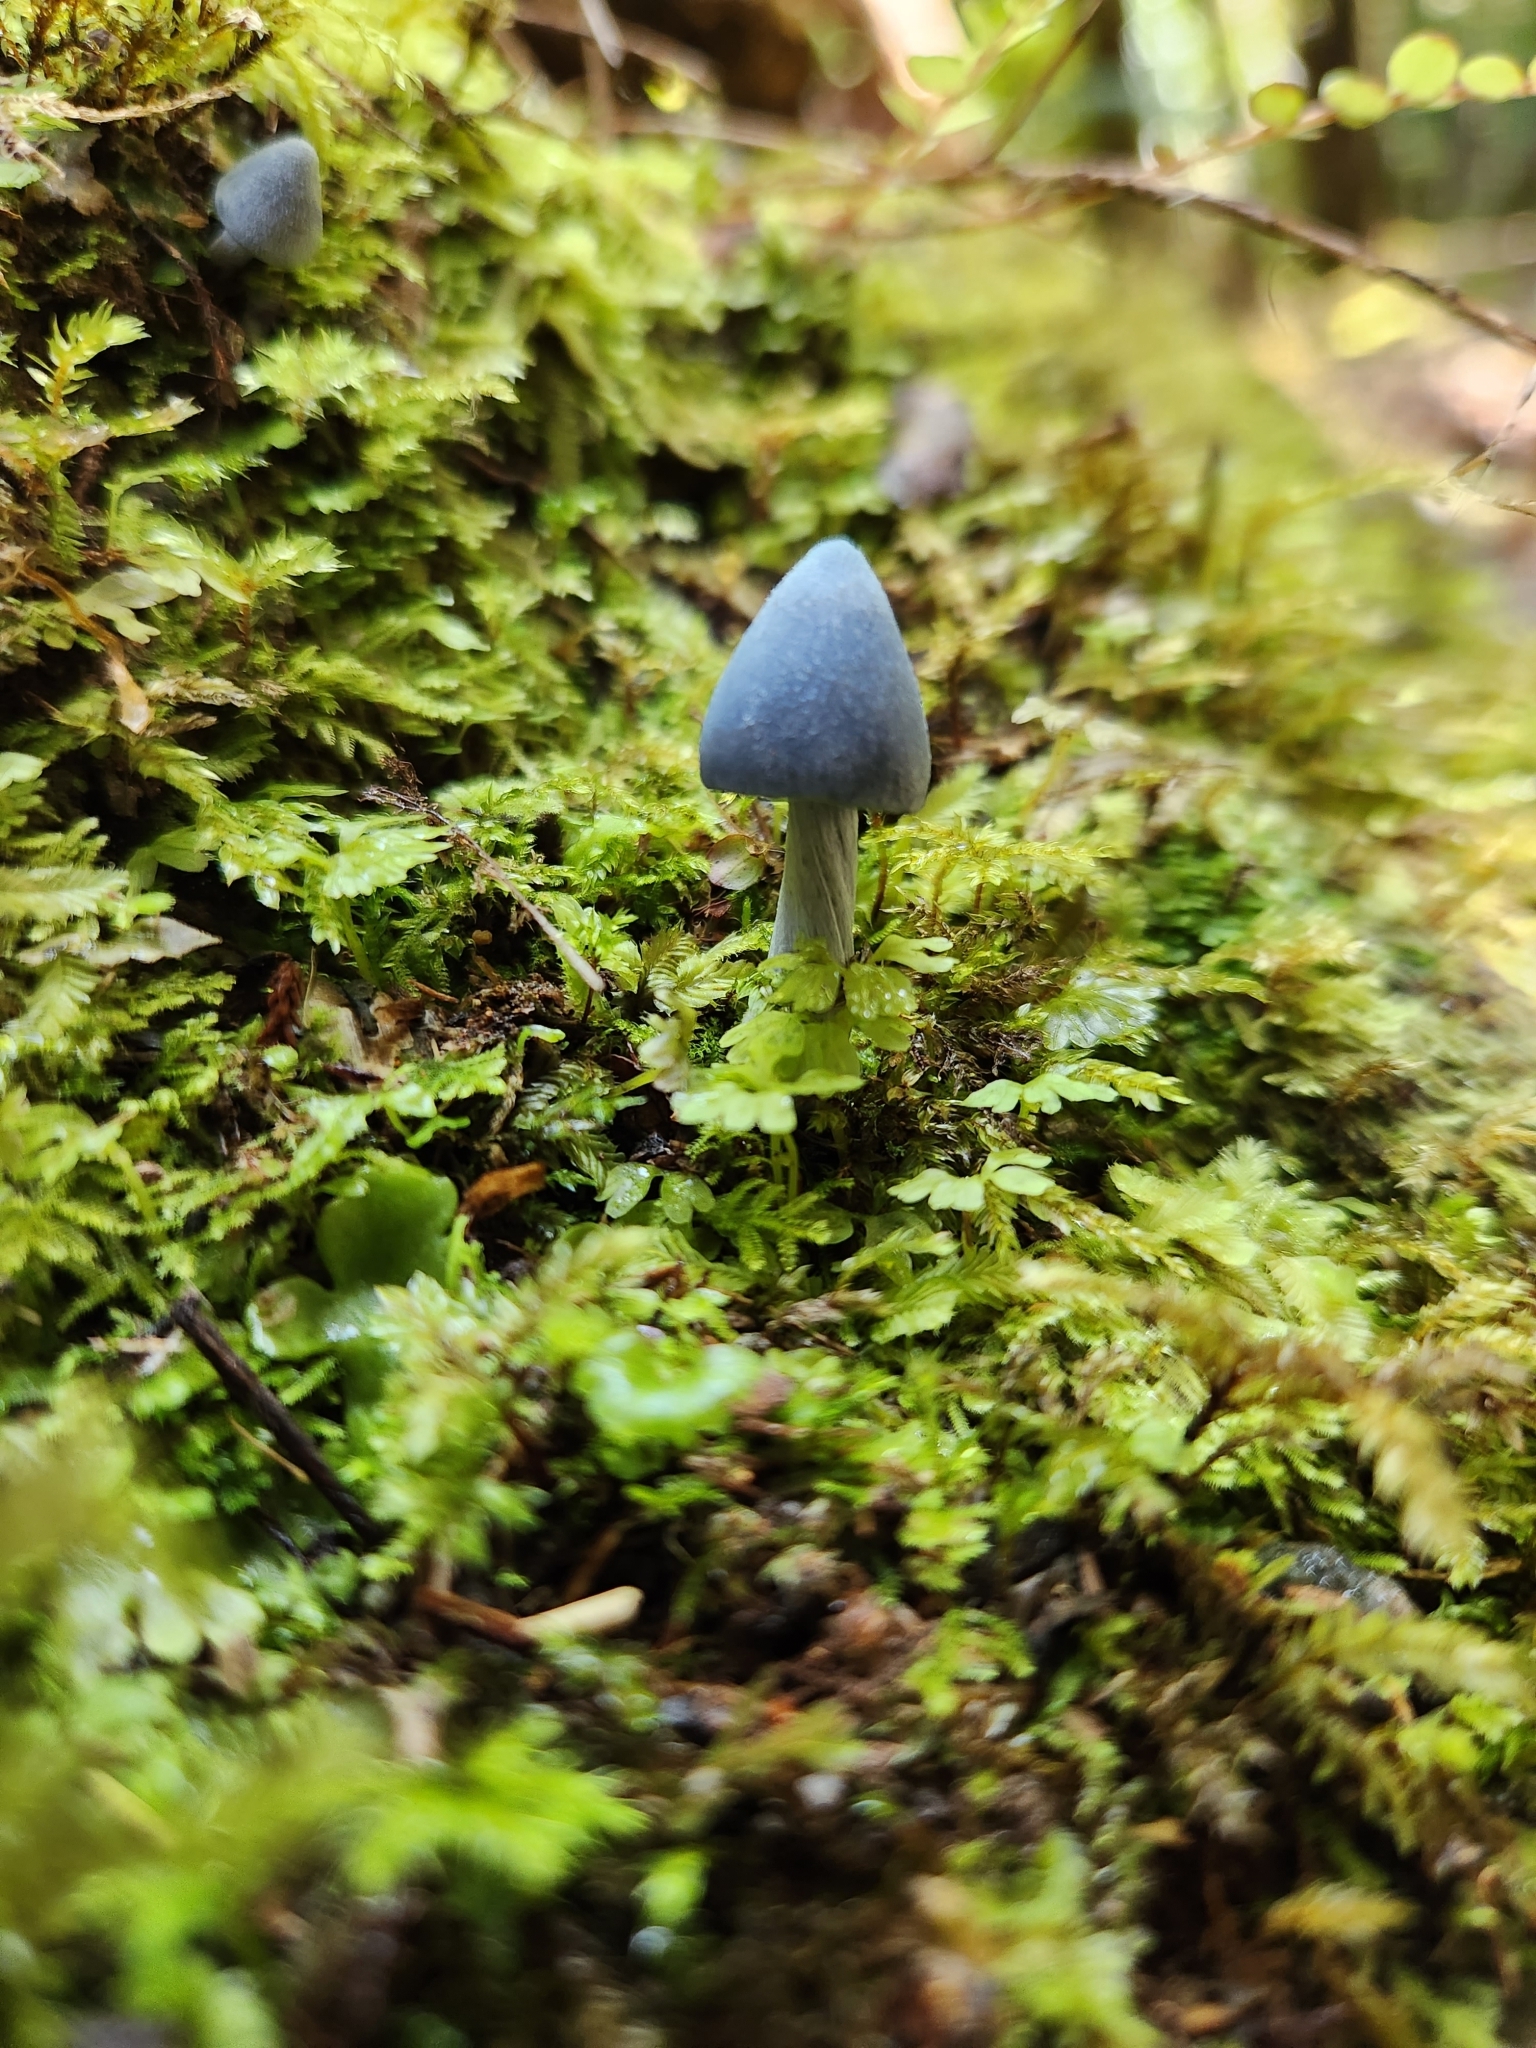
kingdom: Fungi
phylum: Basidiomycota
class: Agaricomycetes
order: Agaricales
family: Entolomataceae
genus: Entoloma
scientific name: Entoloma hochstetteri
